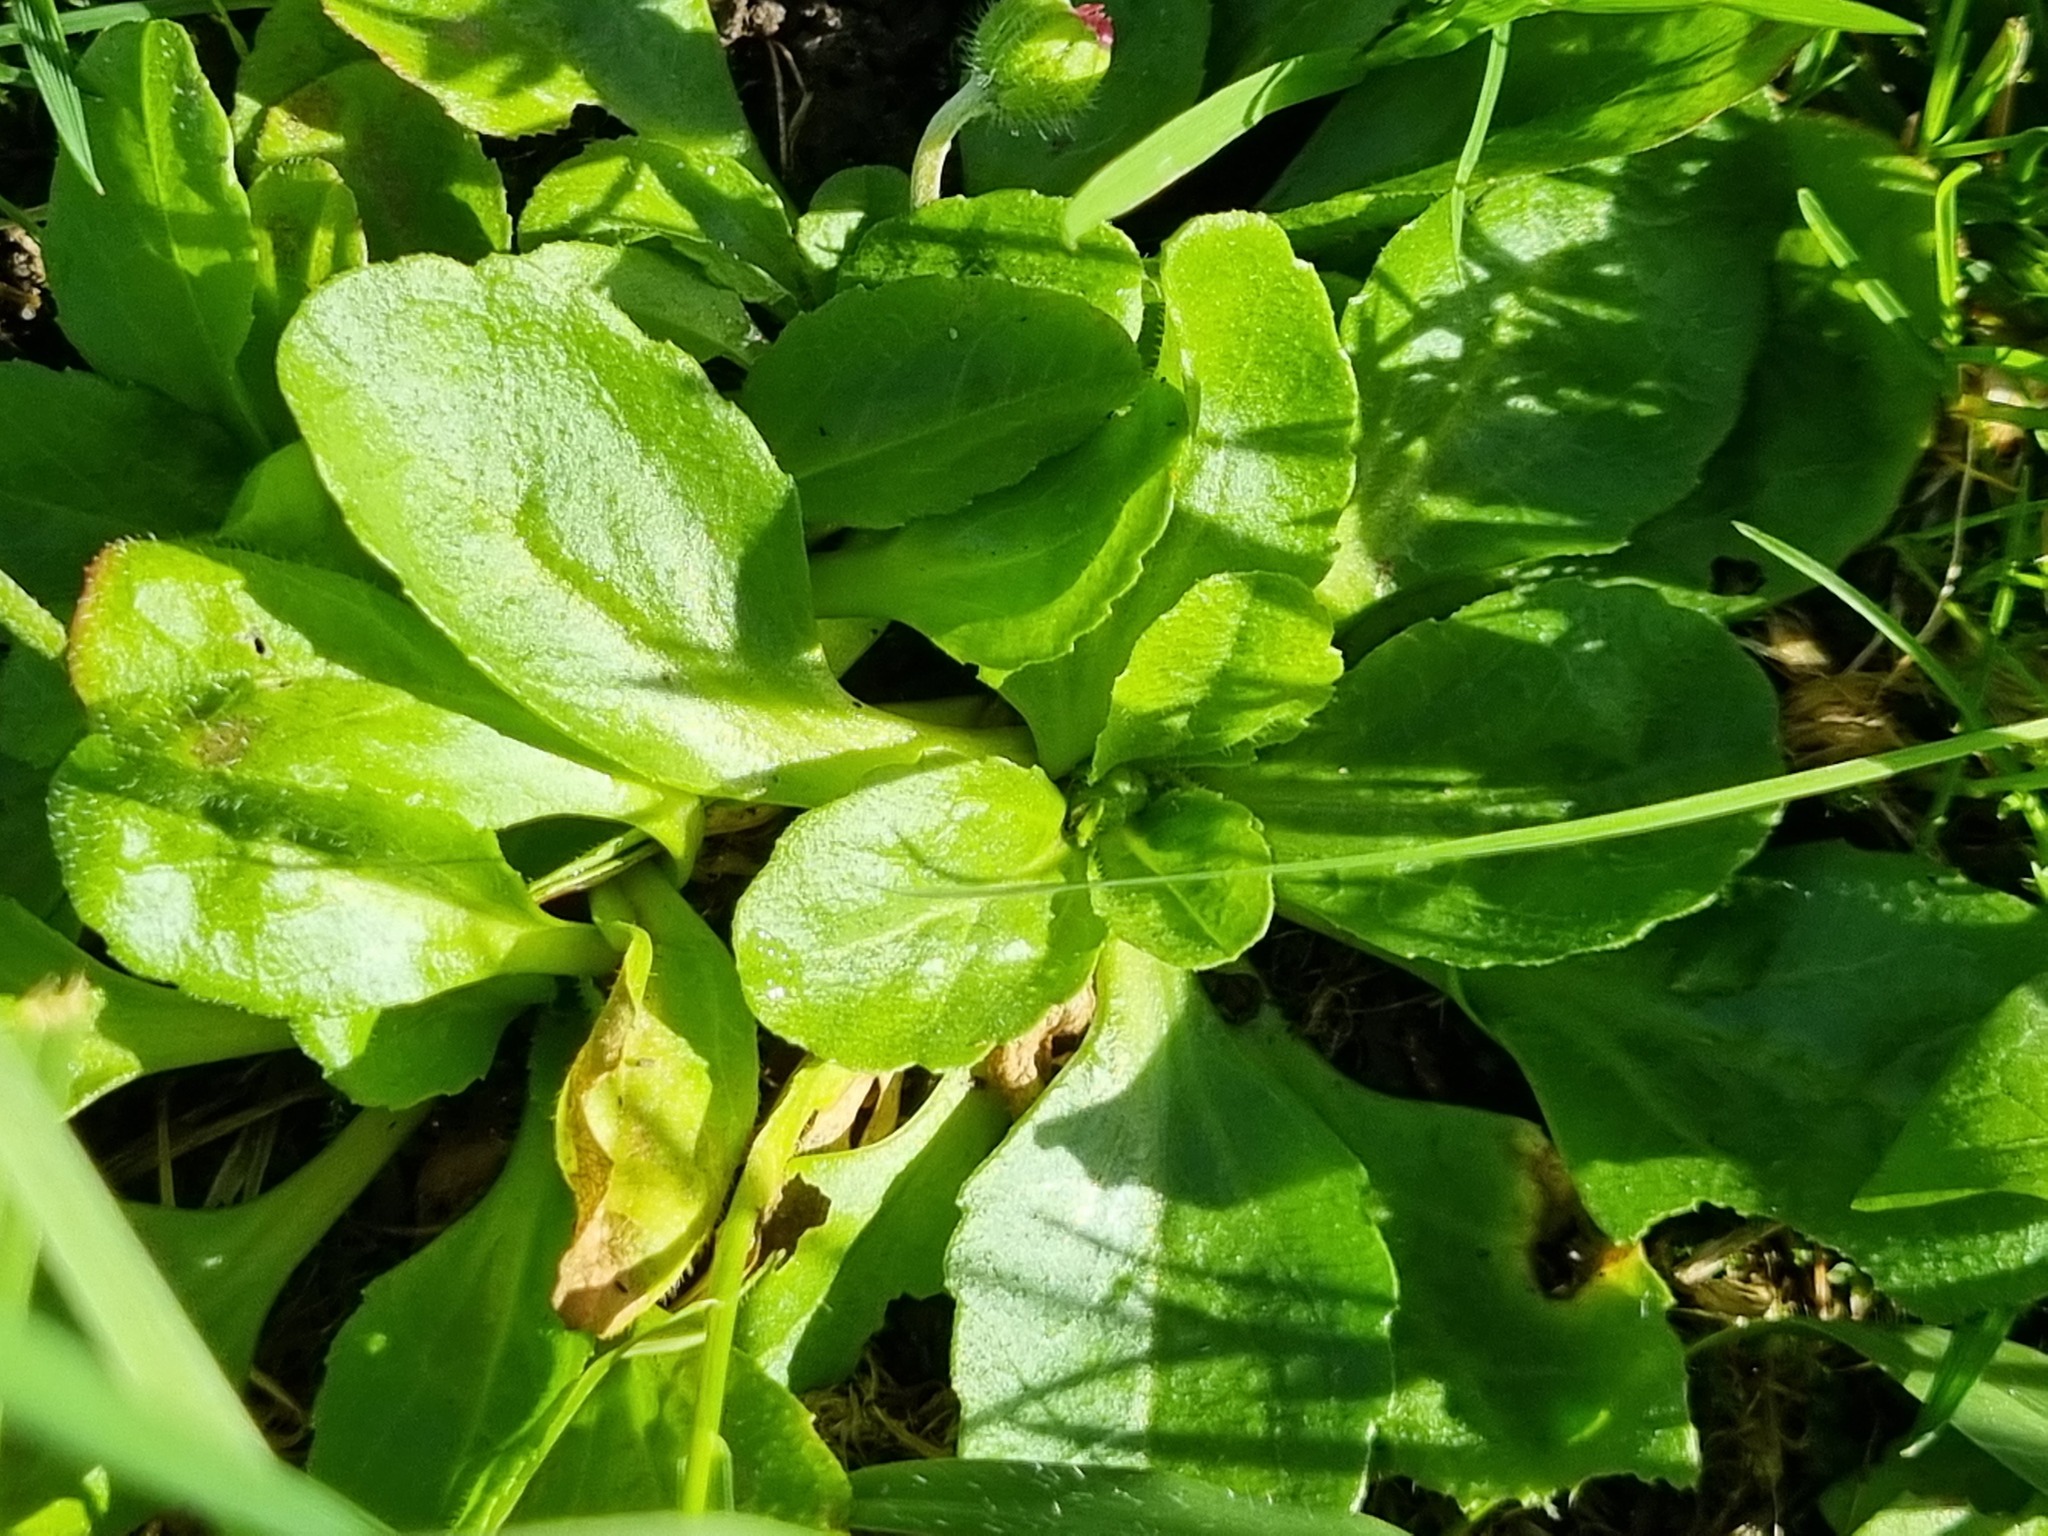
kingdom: Plantae
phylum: Tracheophyta
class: Magnoliopsida
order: Asterales
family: Asteraceae
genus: Bellis
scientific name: Bellis perennis
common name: Lawndaisy
